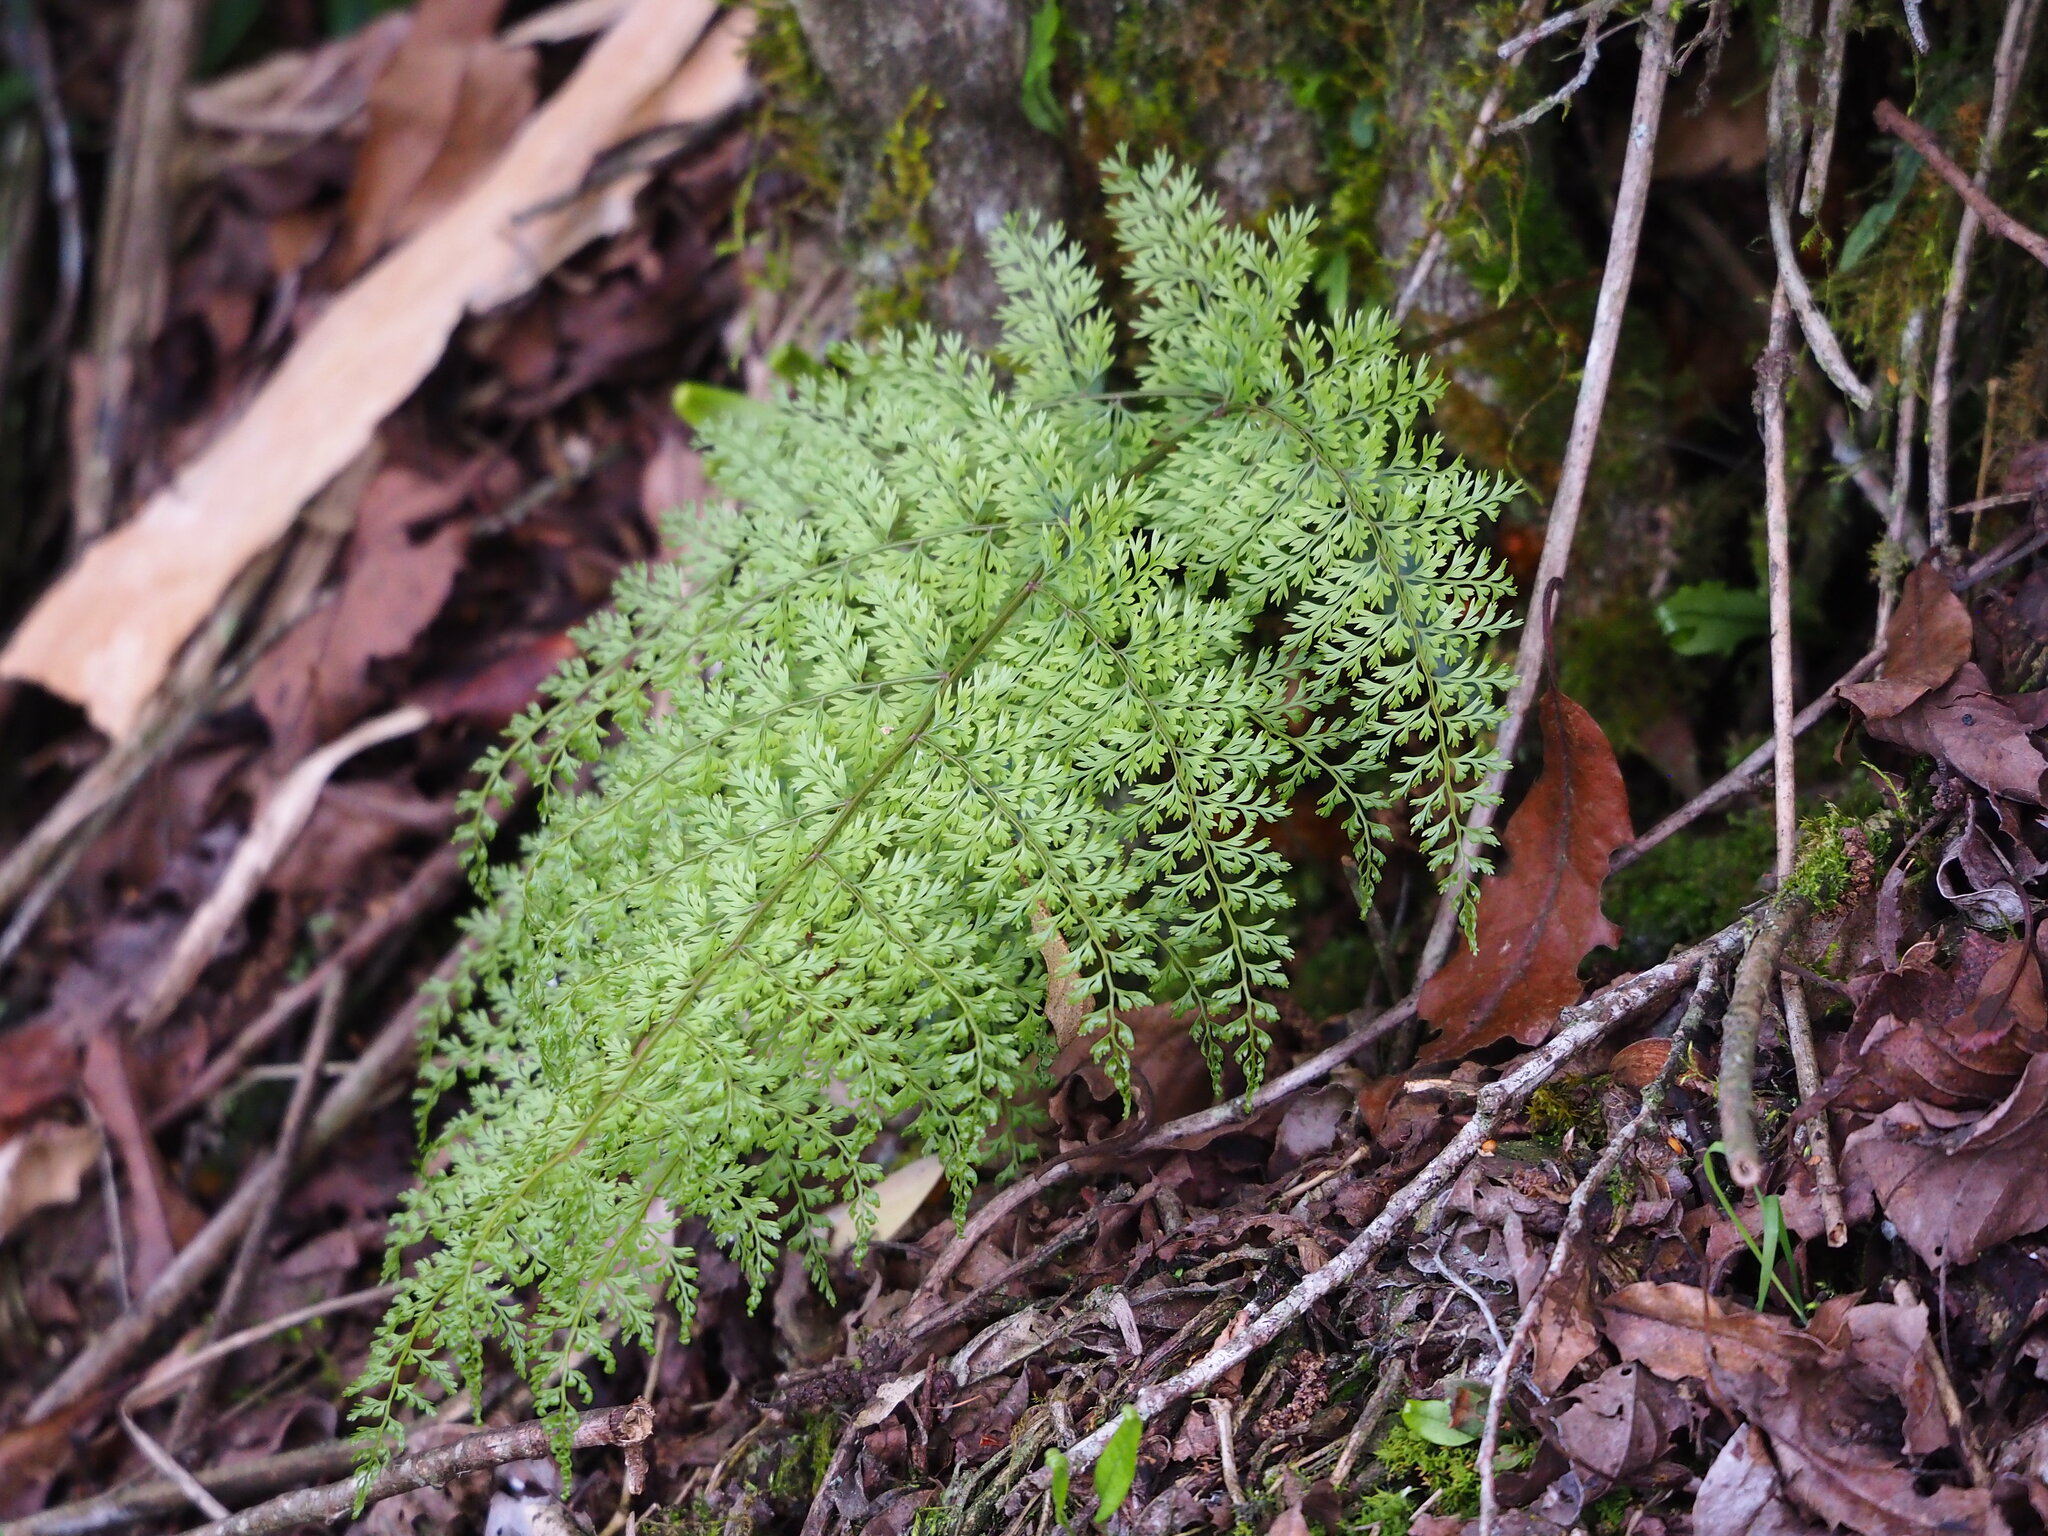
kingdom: Plantae
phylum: Tracheophyta
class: Polypodiopsida
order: Polypodiales
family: Davalliaceae
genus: Davallia
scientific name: Davallia perdurans
